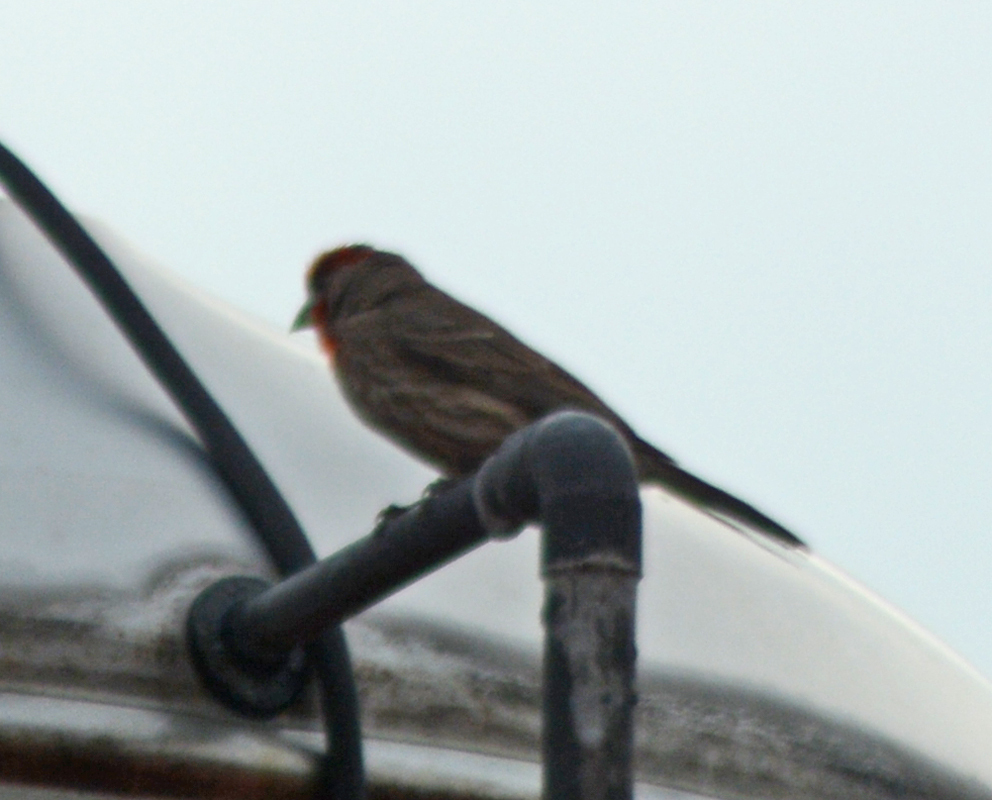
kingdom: Animalia
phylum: Chordata
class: Aves
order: Passeriformes
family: Fringillidae
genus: Haemorhous
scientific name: Haemorhous mexicanus
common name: House finch
